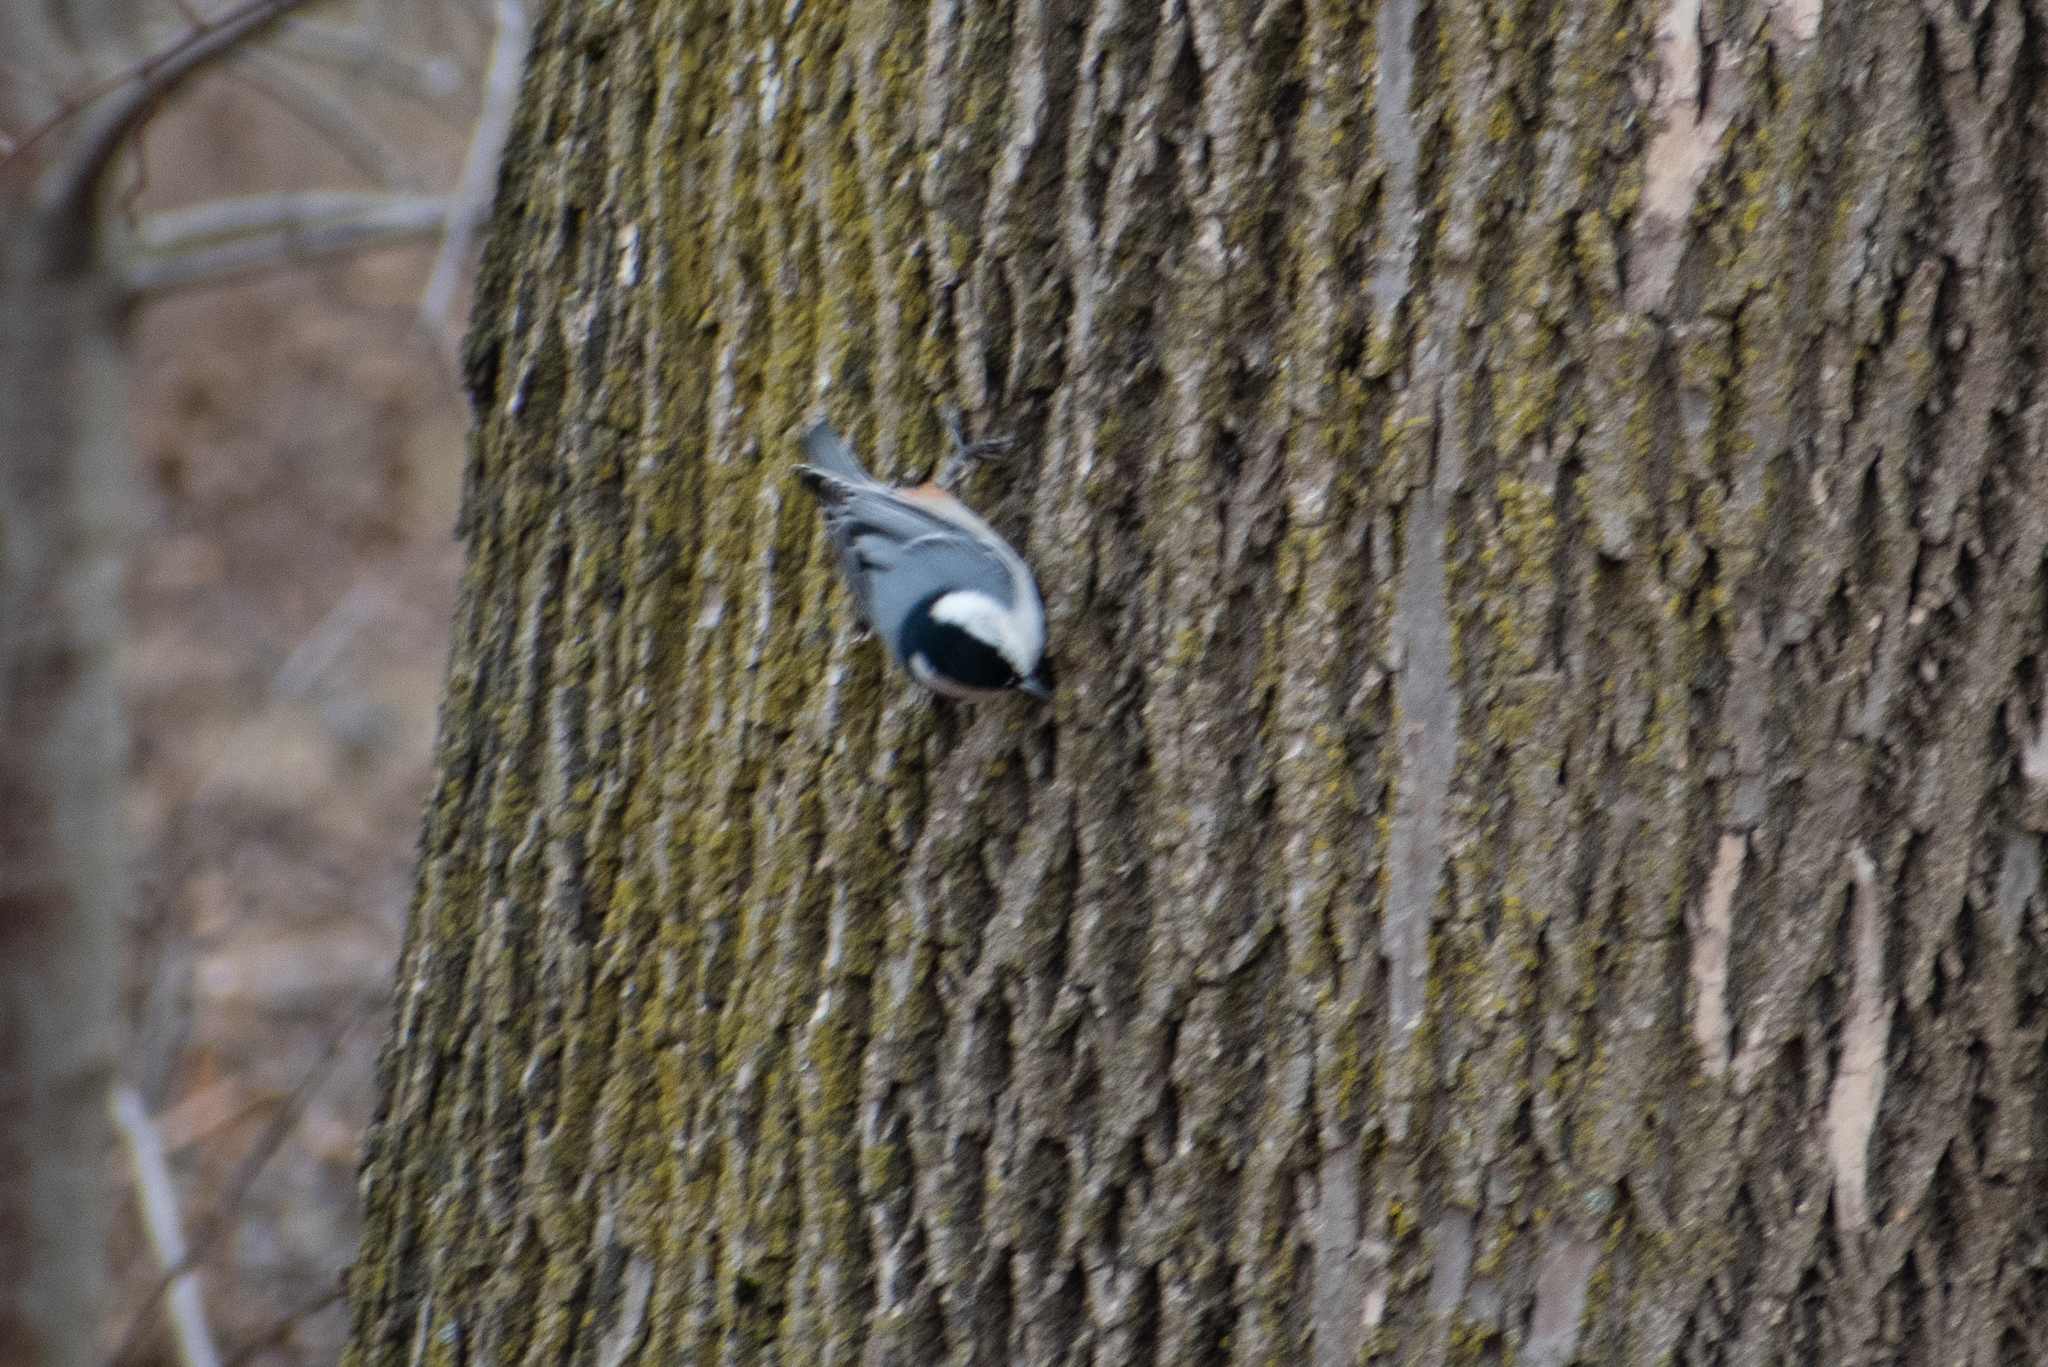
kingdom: Animalia
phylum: Chordata
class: Aves
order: Passeriformes
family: Sittidae
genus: Sitta
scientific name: Sitta carolinensis
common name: White-breasted nuthatch
